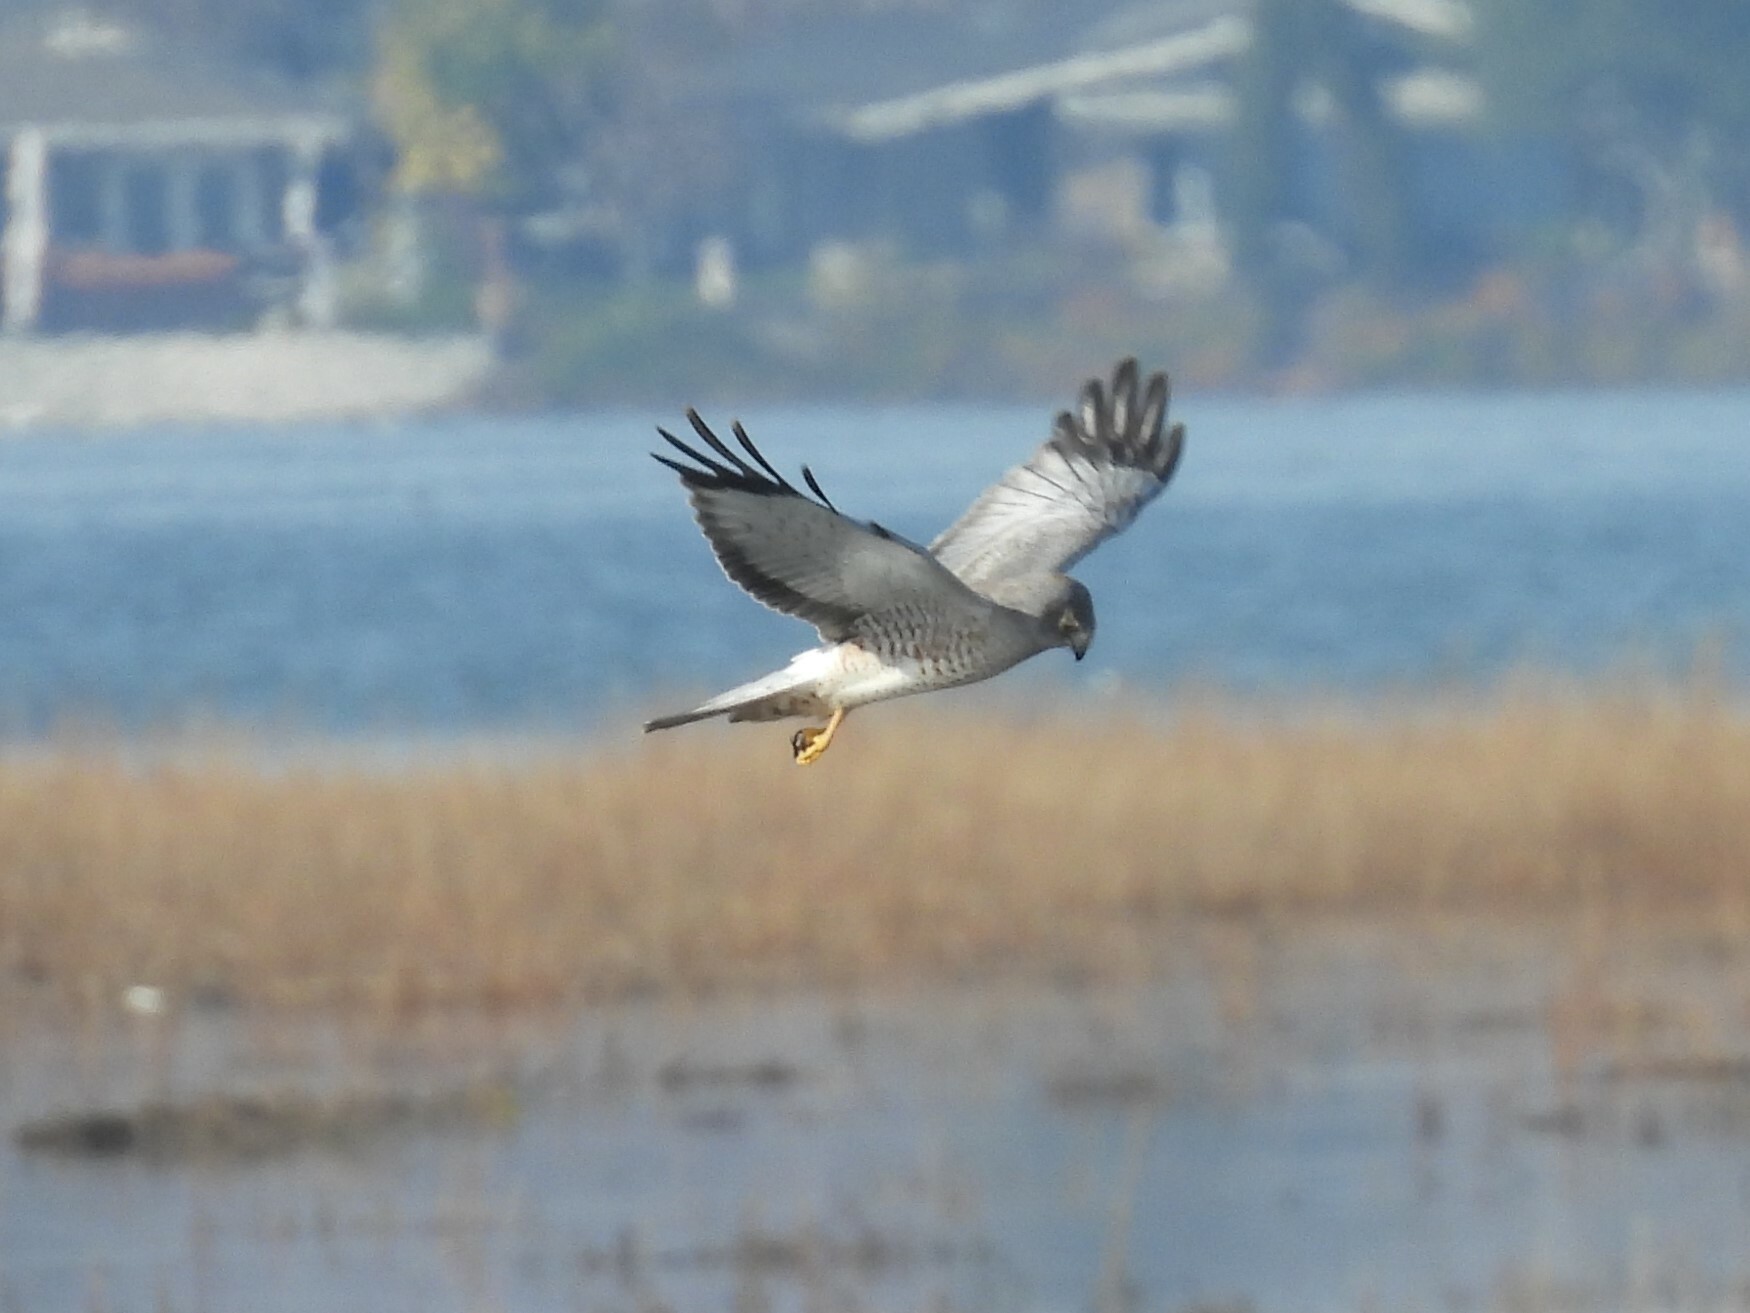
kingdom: Animalia
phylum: Chordata
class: Aves
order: Accipitriformes
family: Accipitridae
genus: Circus
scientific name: Circus cyaneus
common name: Hen harrier
